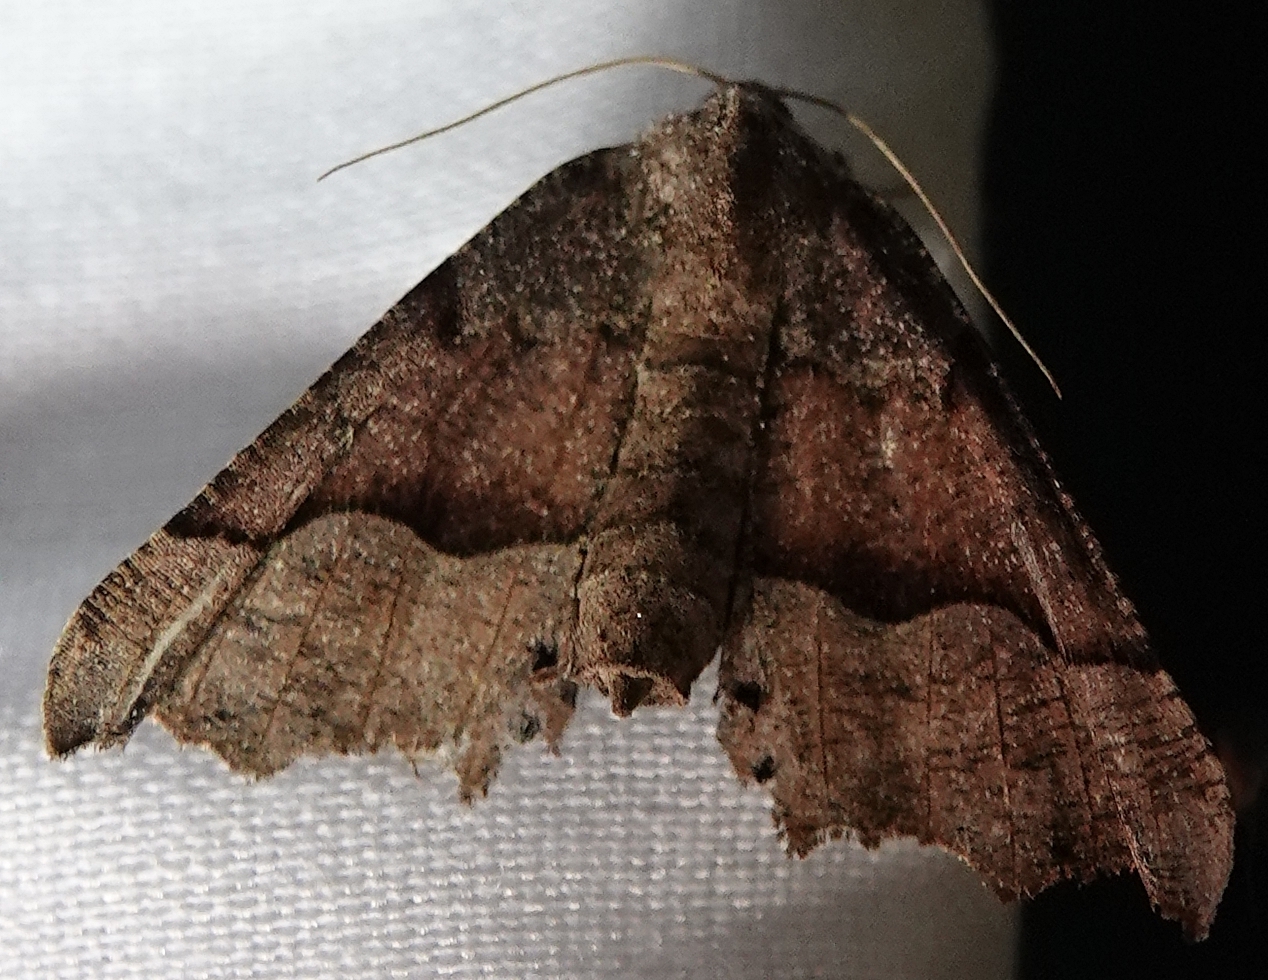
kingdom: Animalia
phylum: Arthropoda
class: Insecta
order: Lepidoptera
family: Geometridae
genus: Pero
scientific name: Pero honestaria
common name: Honest pero
